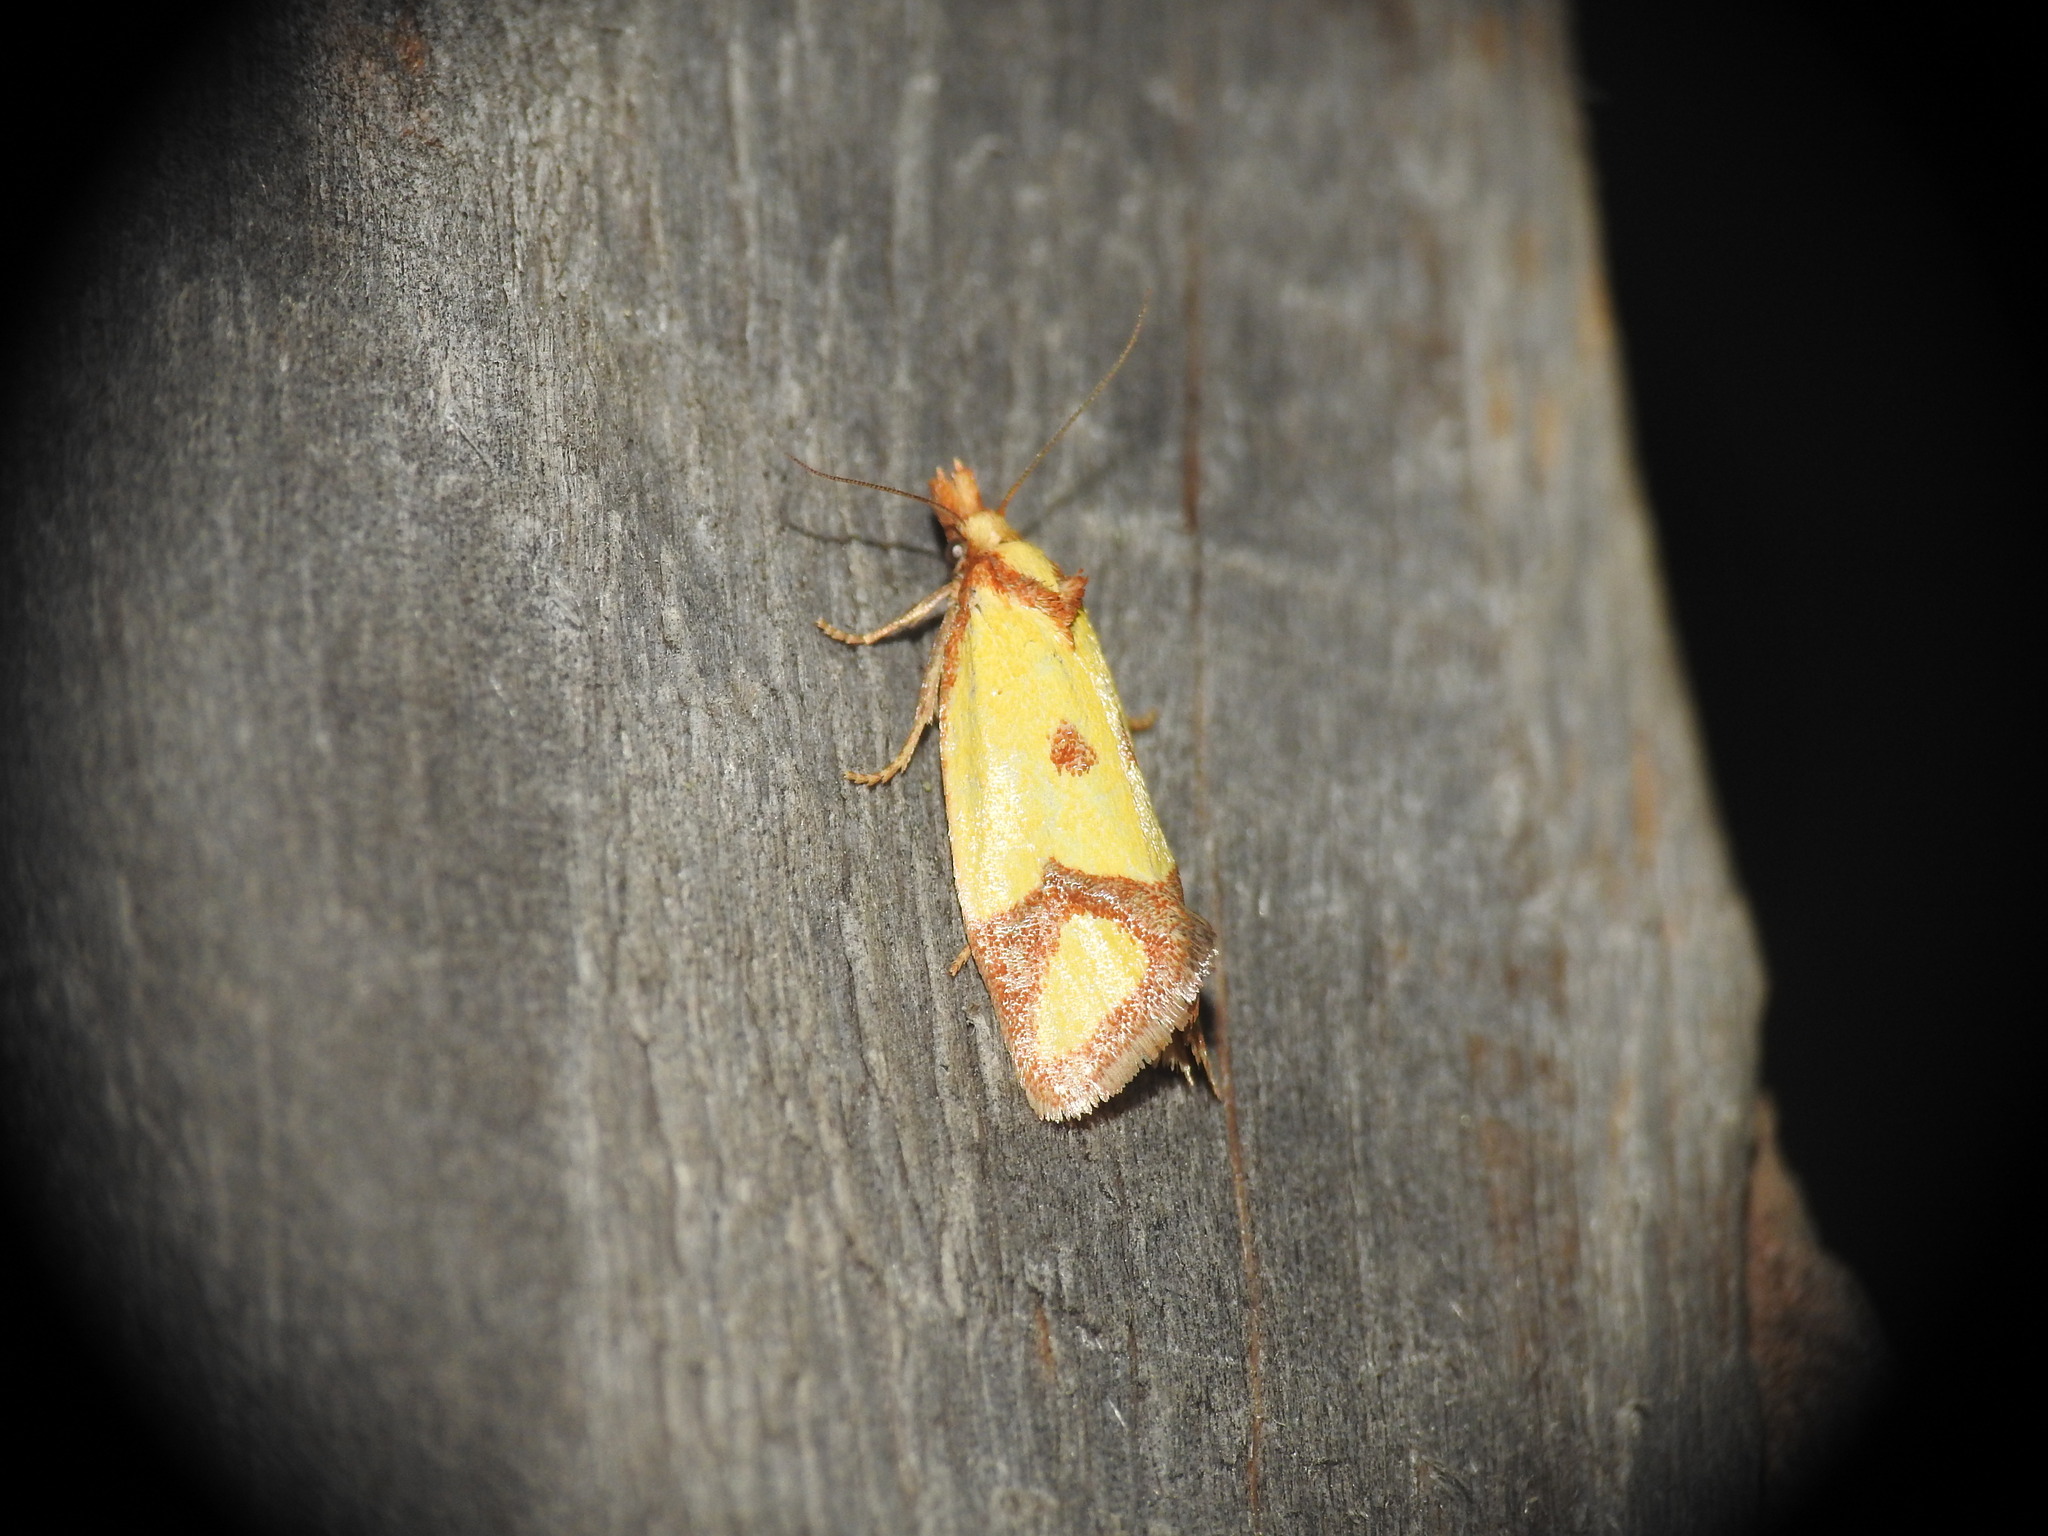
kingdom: Animalia
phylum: Arthropoda
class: Insecta
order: Lepidoptera
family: Tortricidae
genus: Agapeta
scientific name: Agapeta zoegana
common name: Sulfur knapweed root moth
